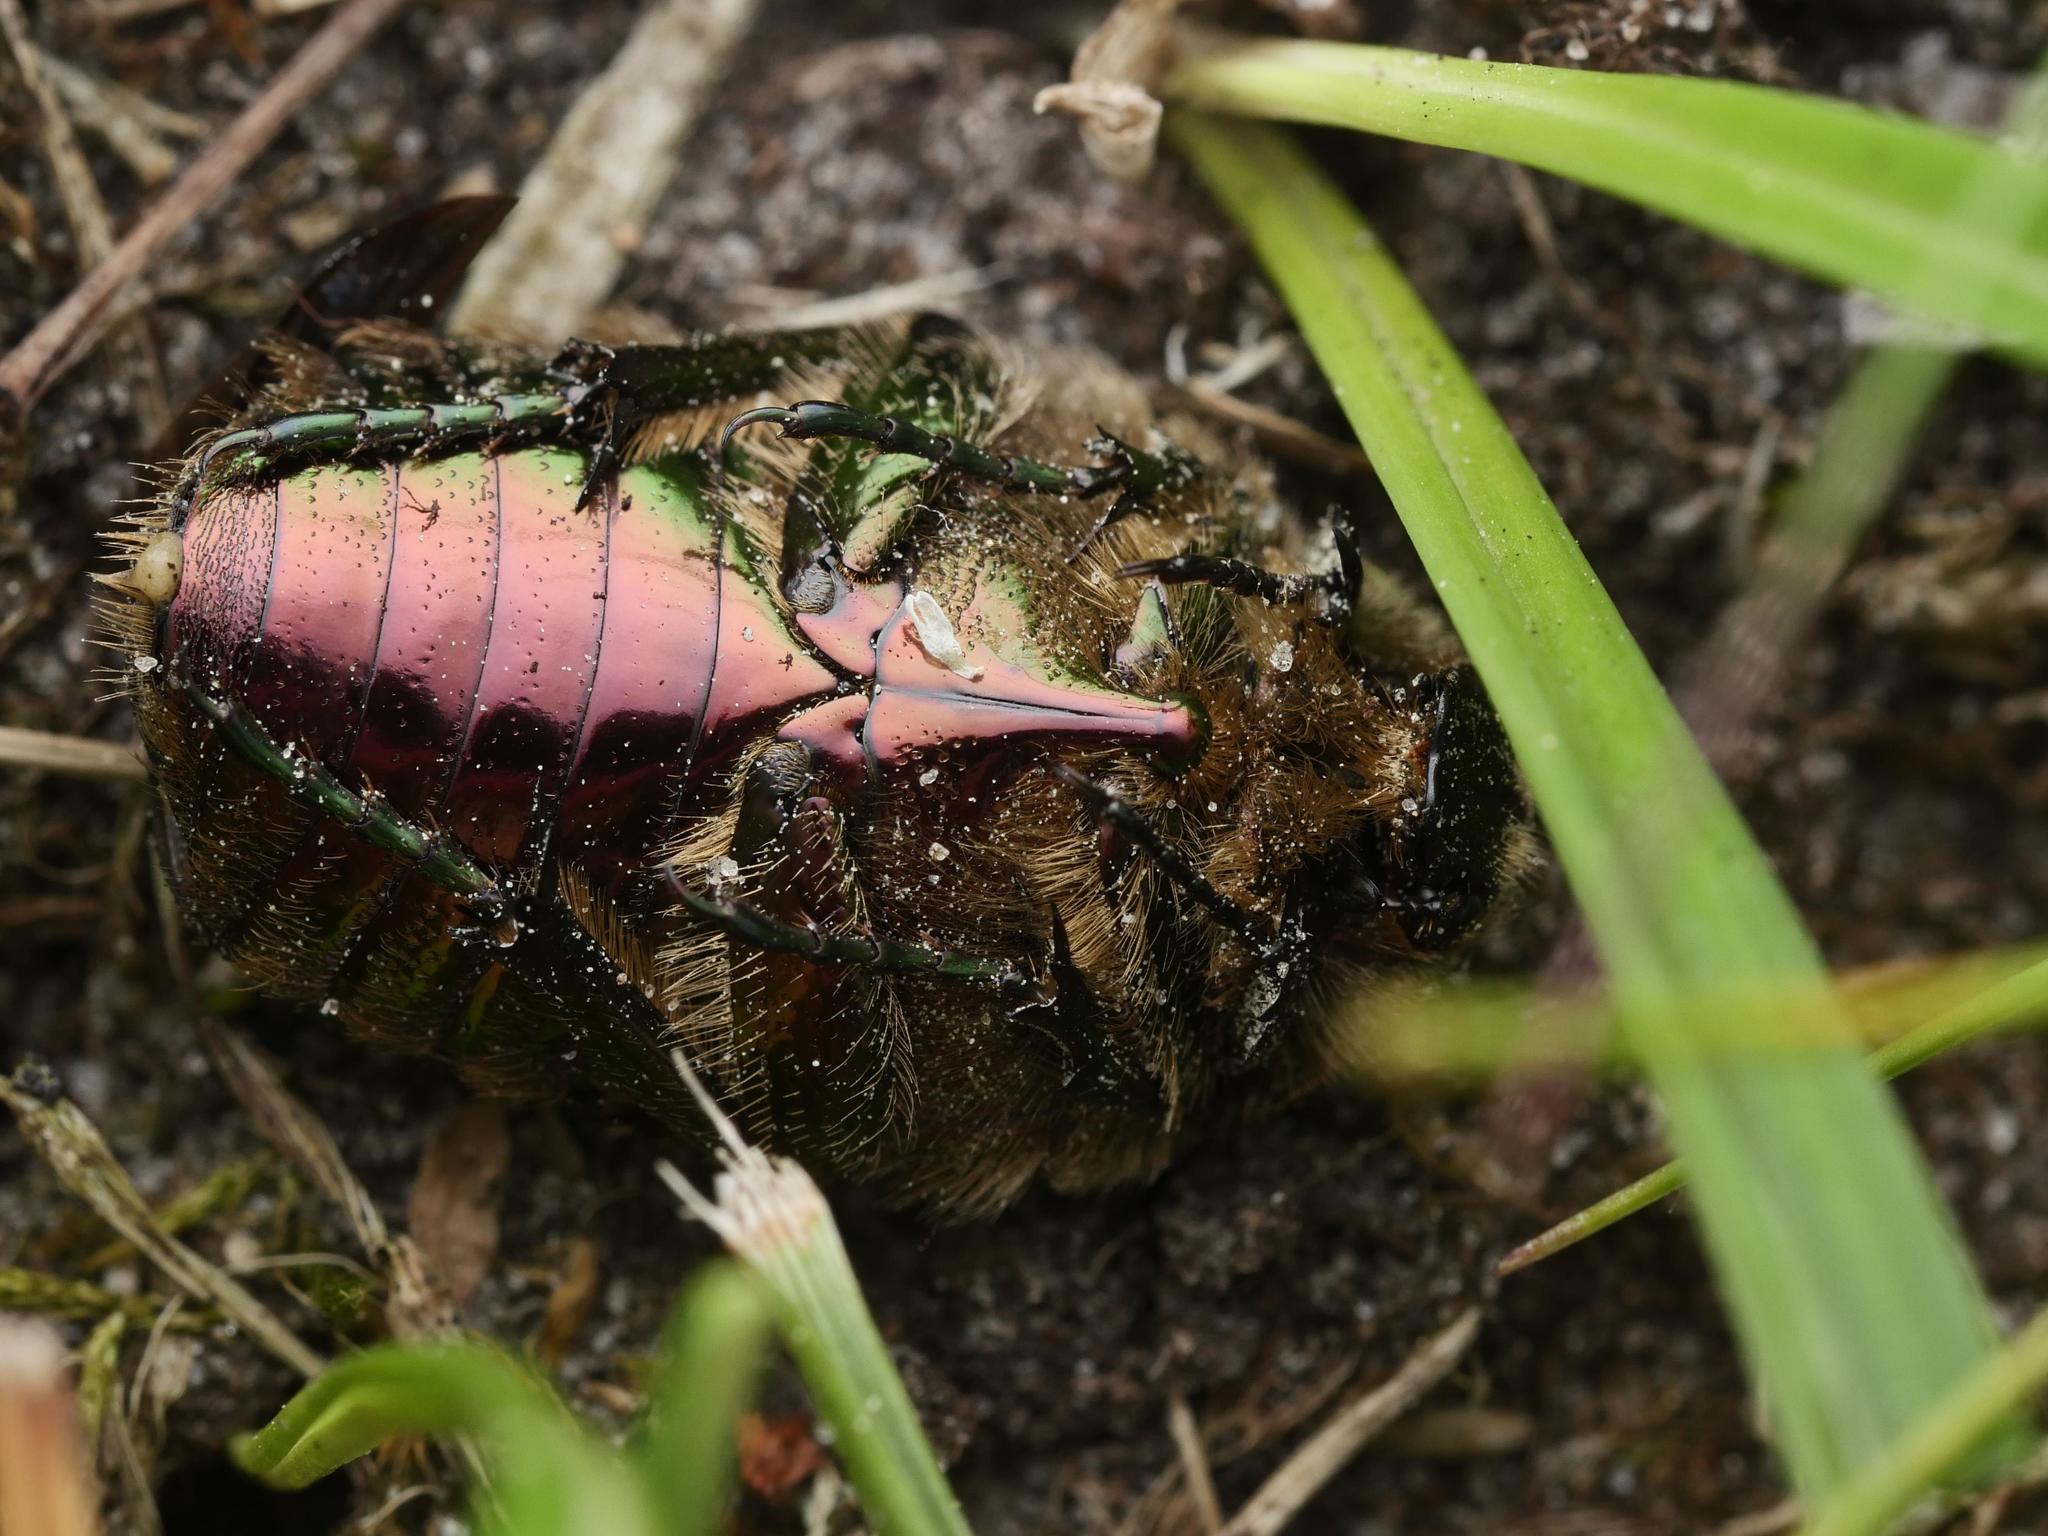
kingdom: Animalia
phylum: Arthropoda
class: Insecta
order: Coleoptera
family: Scarabaeidae
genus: Cetonia
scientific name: Cetonia aurata
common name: Rose chafer
